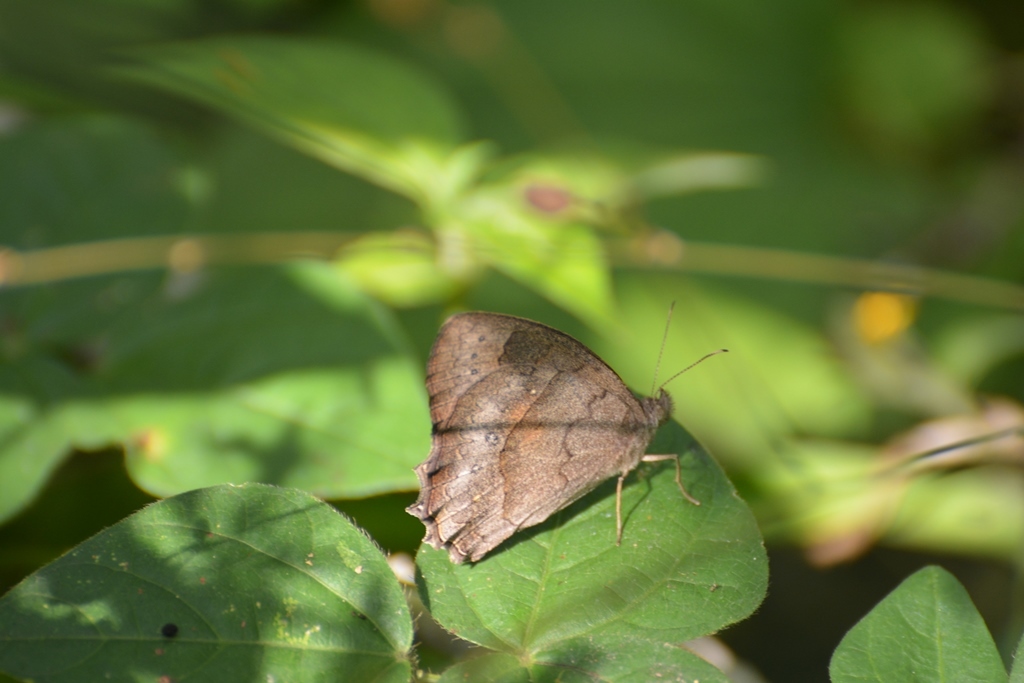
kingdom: Animalia
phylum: Arthropoda
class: Insecta
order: Lepidoptera
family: Nymphalidae
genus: Pindis
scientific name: Pindis squamistriga
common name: Variable satyr
